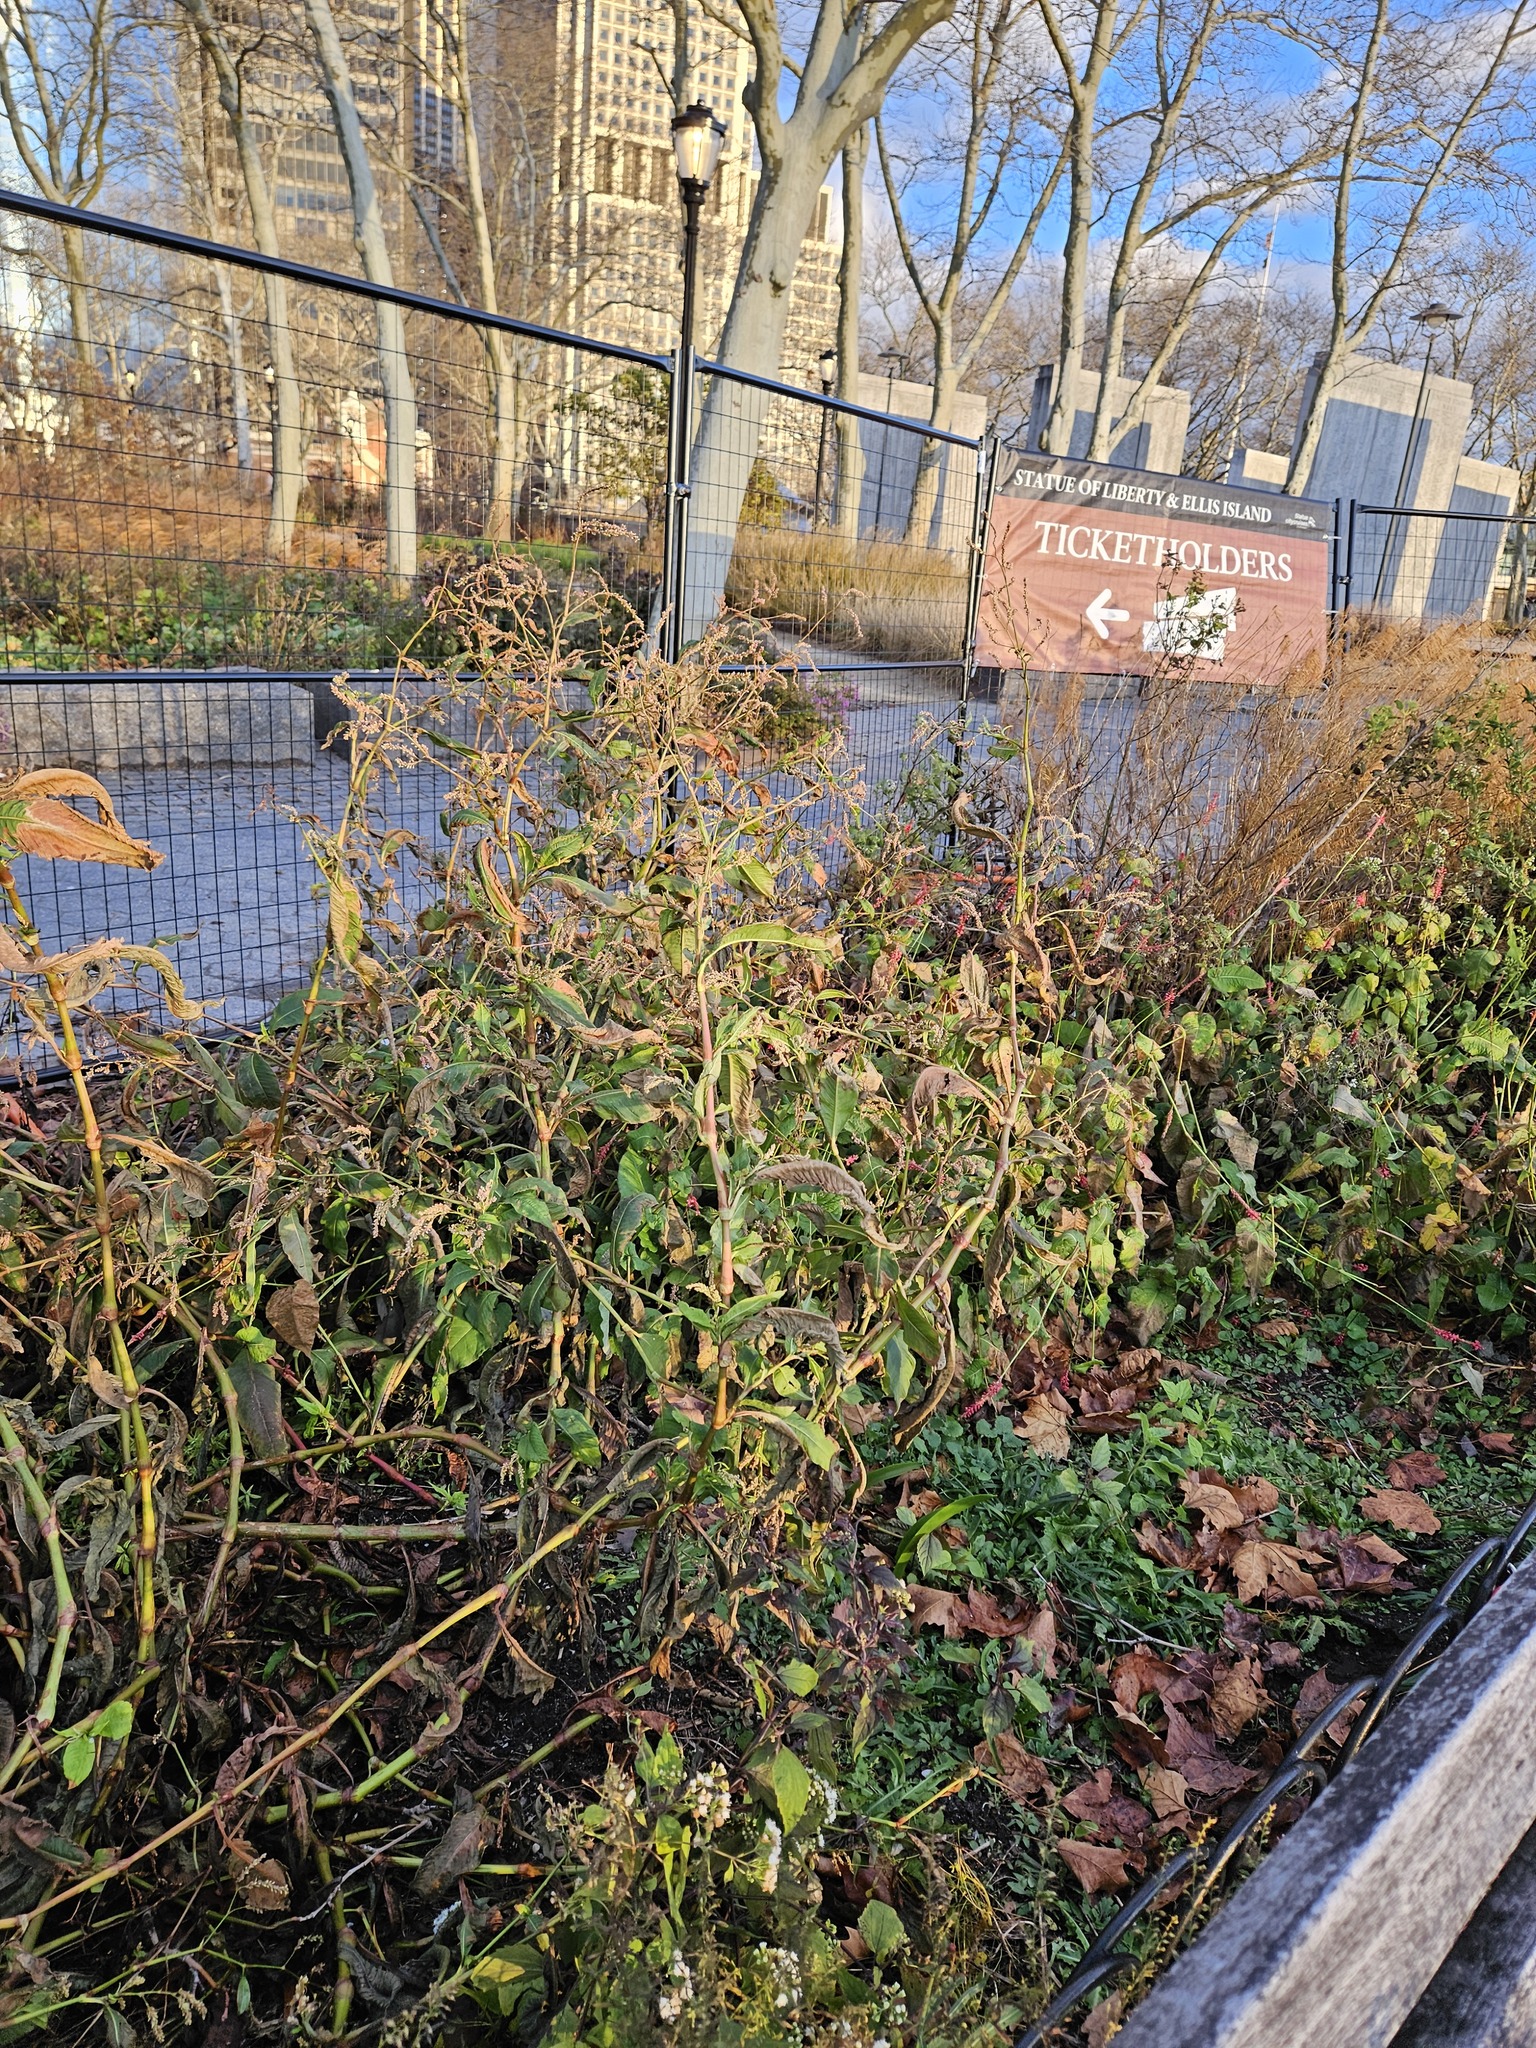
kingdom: Plantae
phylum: Tracheophyta
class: Magnoliopsida
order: Caryophyllales
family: Polygonaceae
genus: Persicaria
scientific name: Persicaria extremiorientalis
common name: Far-eastern smartweed
